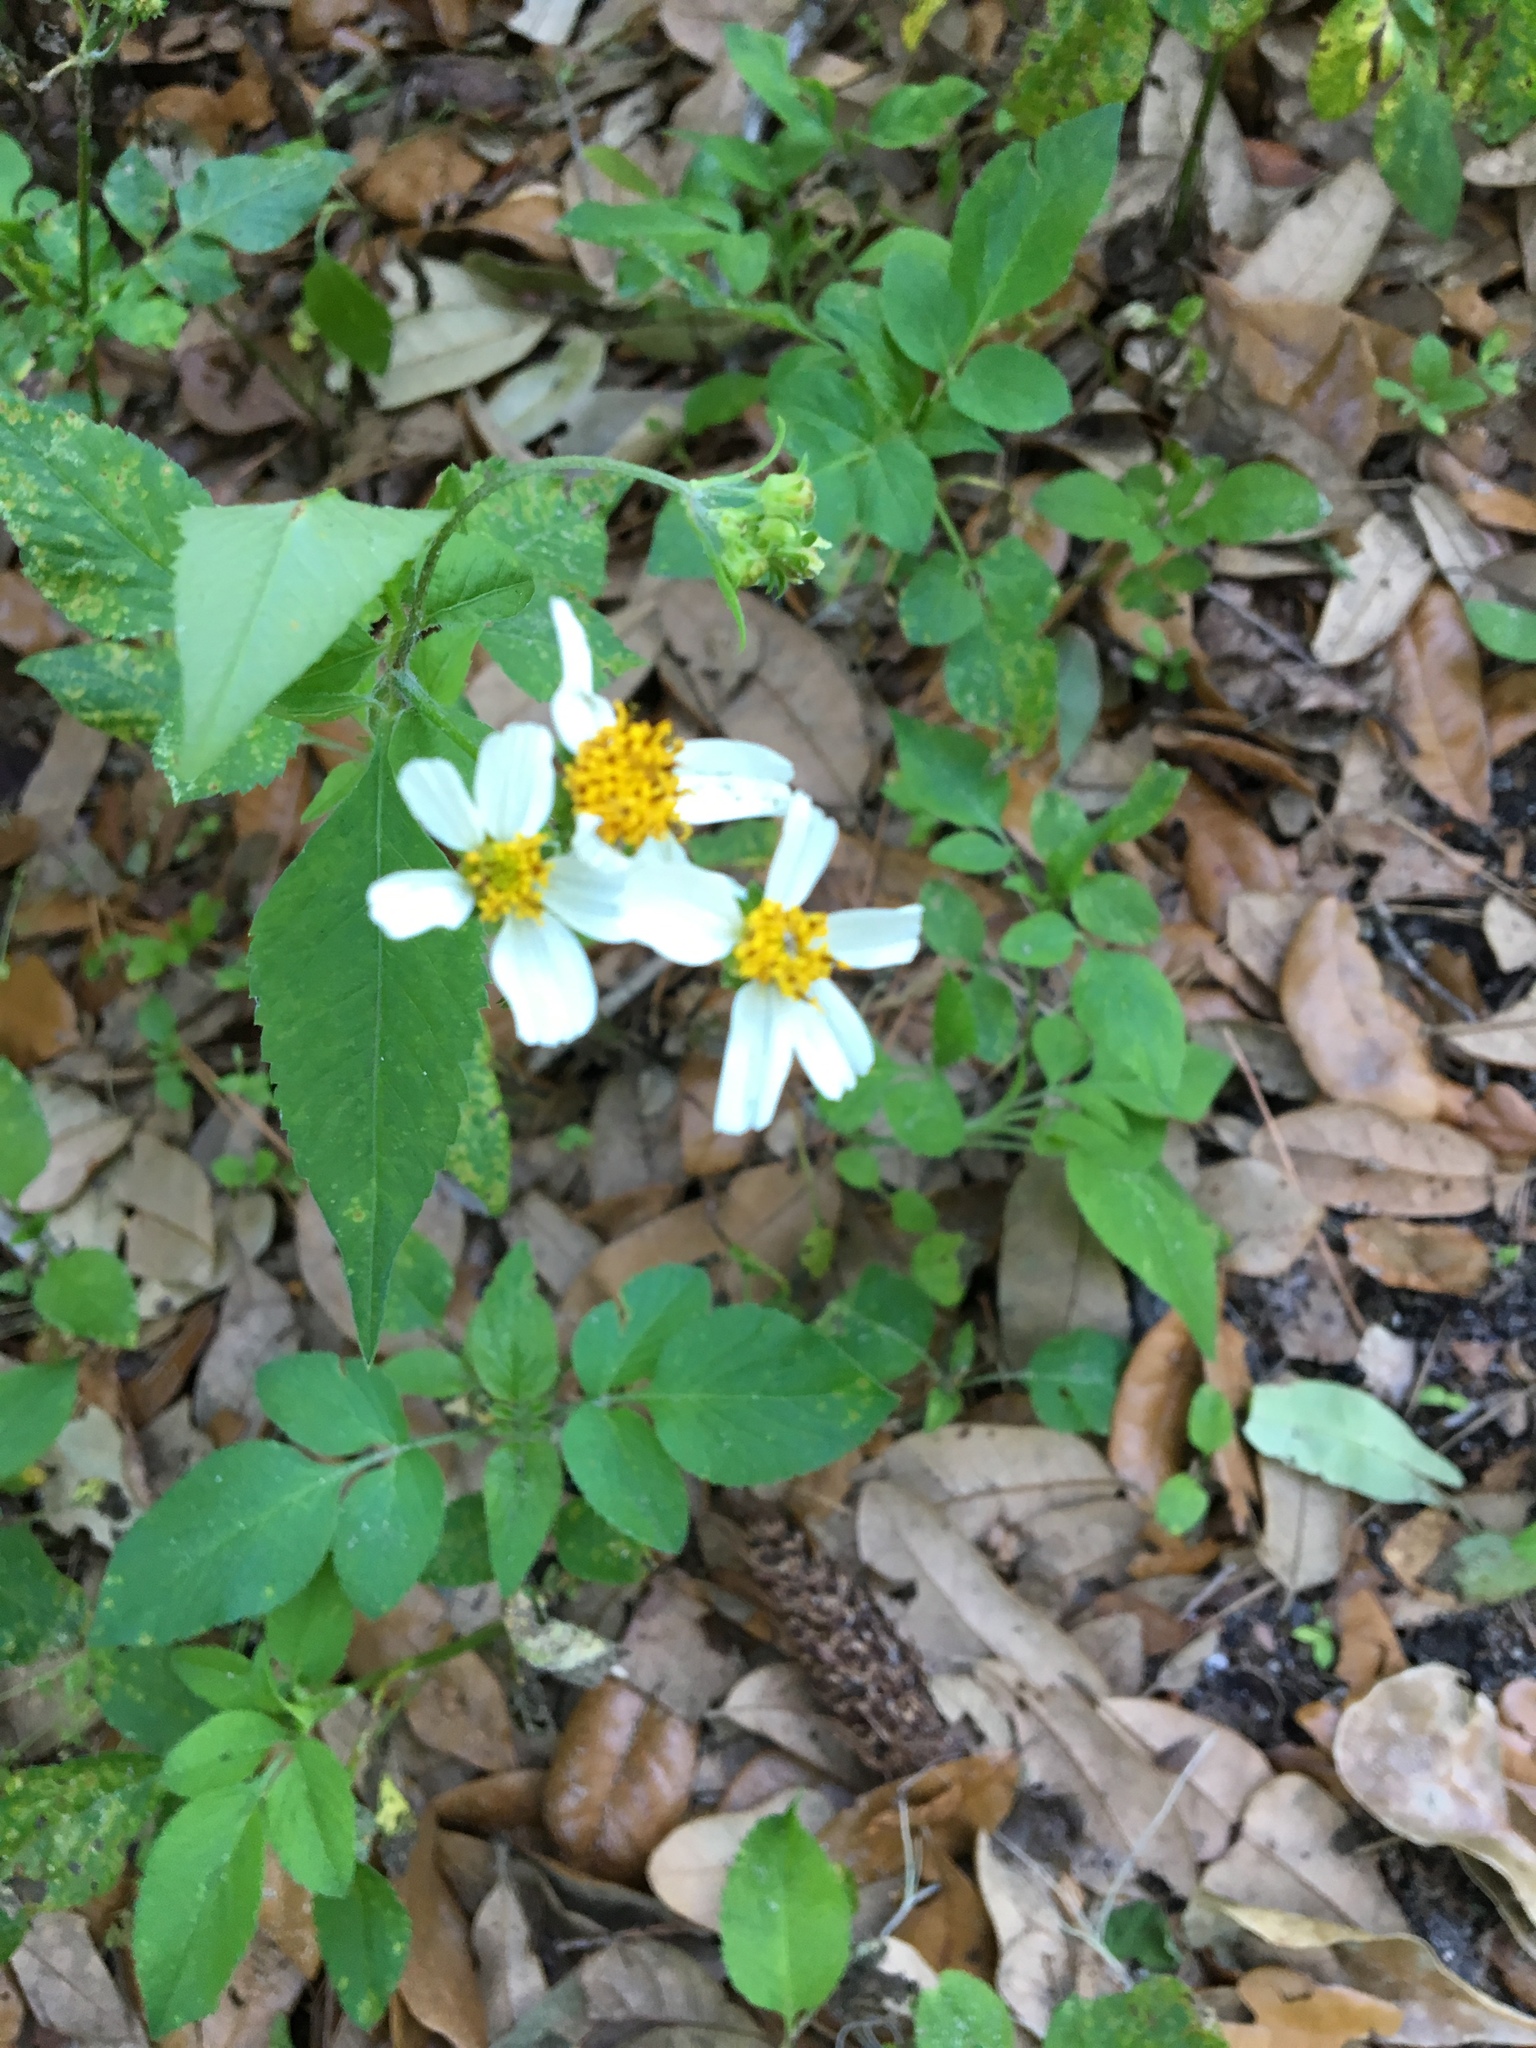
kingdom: Plantae
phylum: Tracheophyta
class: Magnoliopsida
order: Asterales
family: Asteraceae
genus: Bidens
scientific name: Bidens alba
